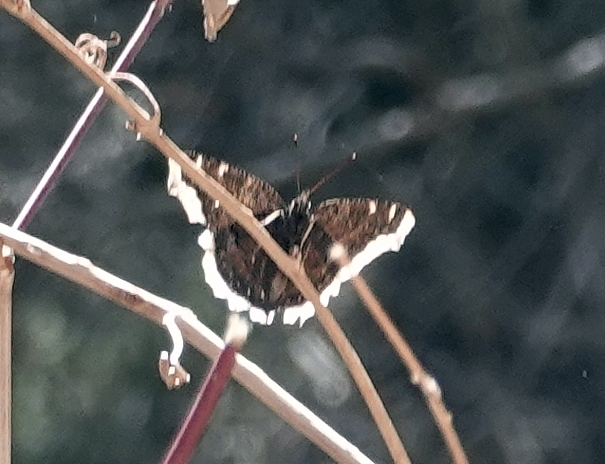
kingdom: Animalia
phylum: Arthropoda
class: Insecta
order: Lepidoptera
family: Nymphalidae
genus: Nymphalis
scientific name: Nymphalis antiopa
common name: Camberwell beauty
